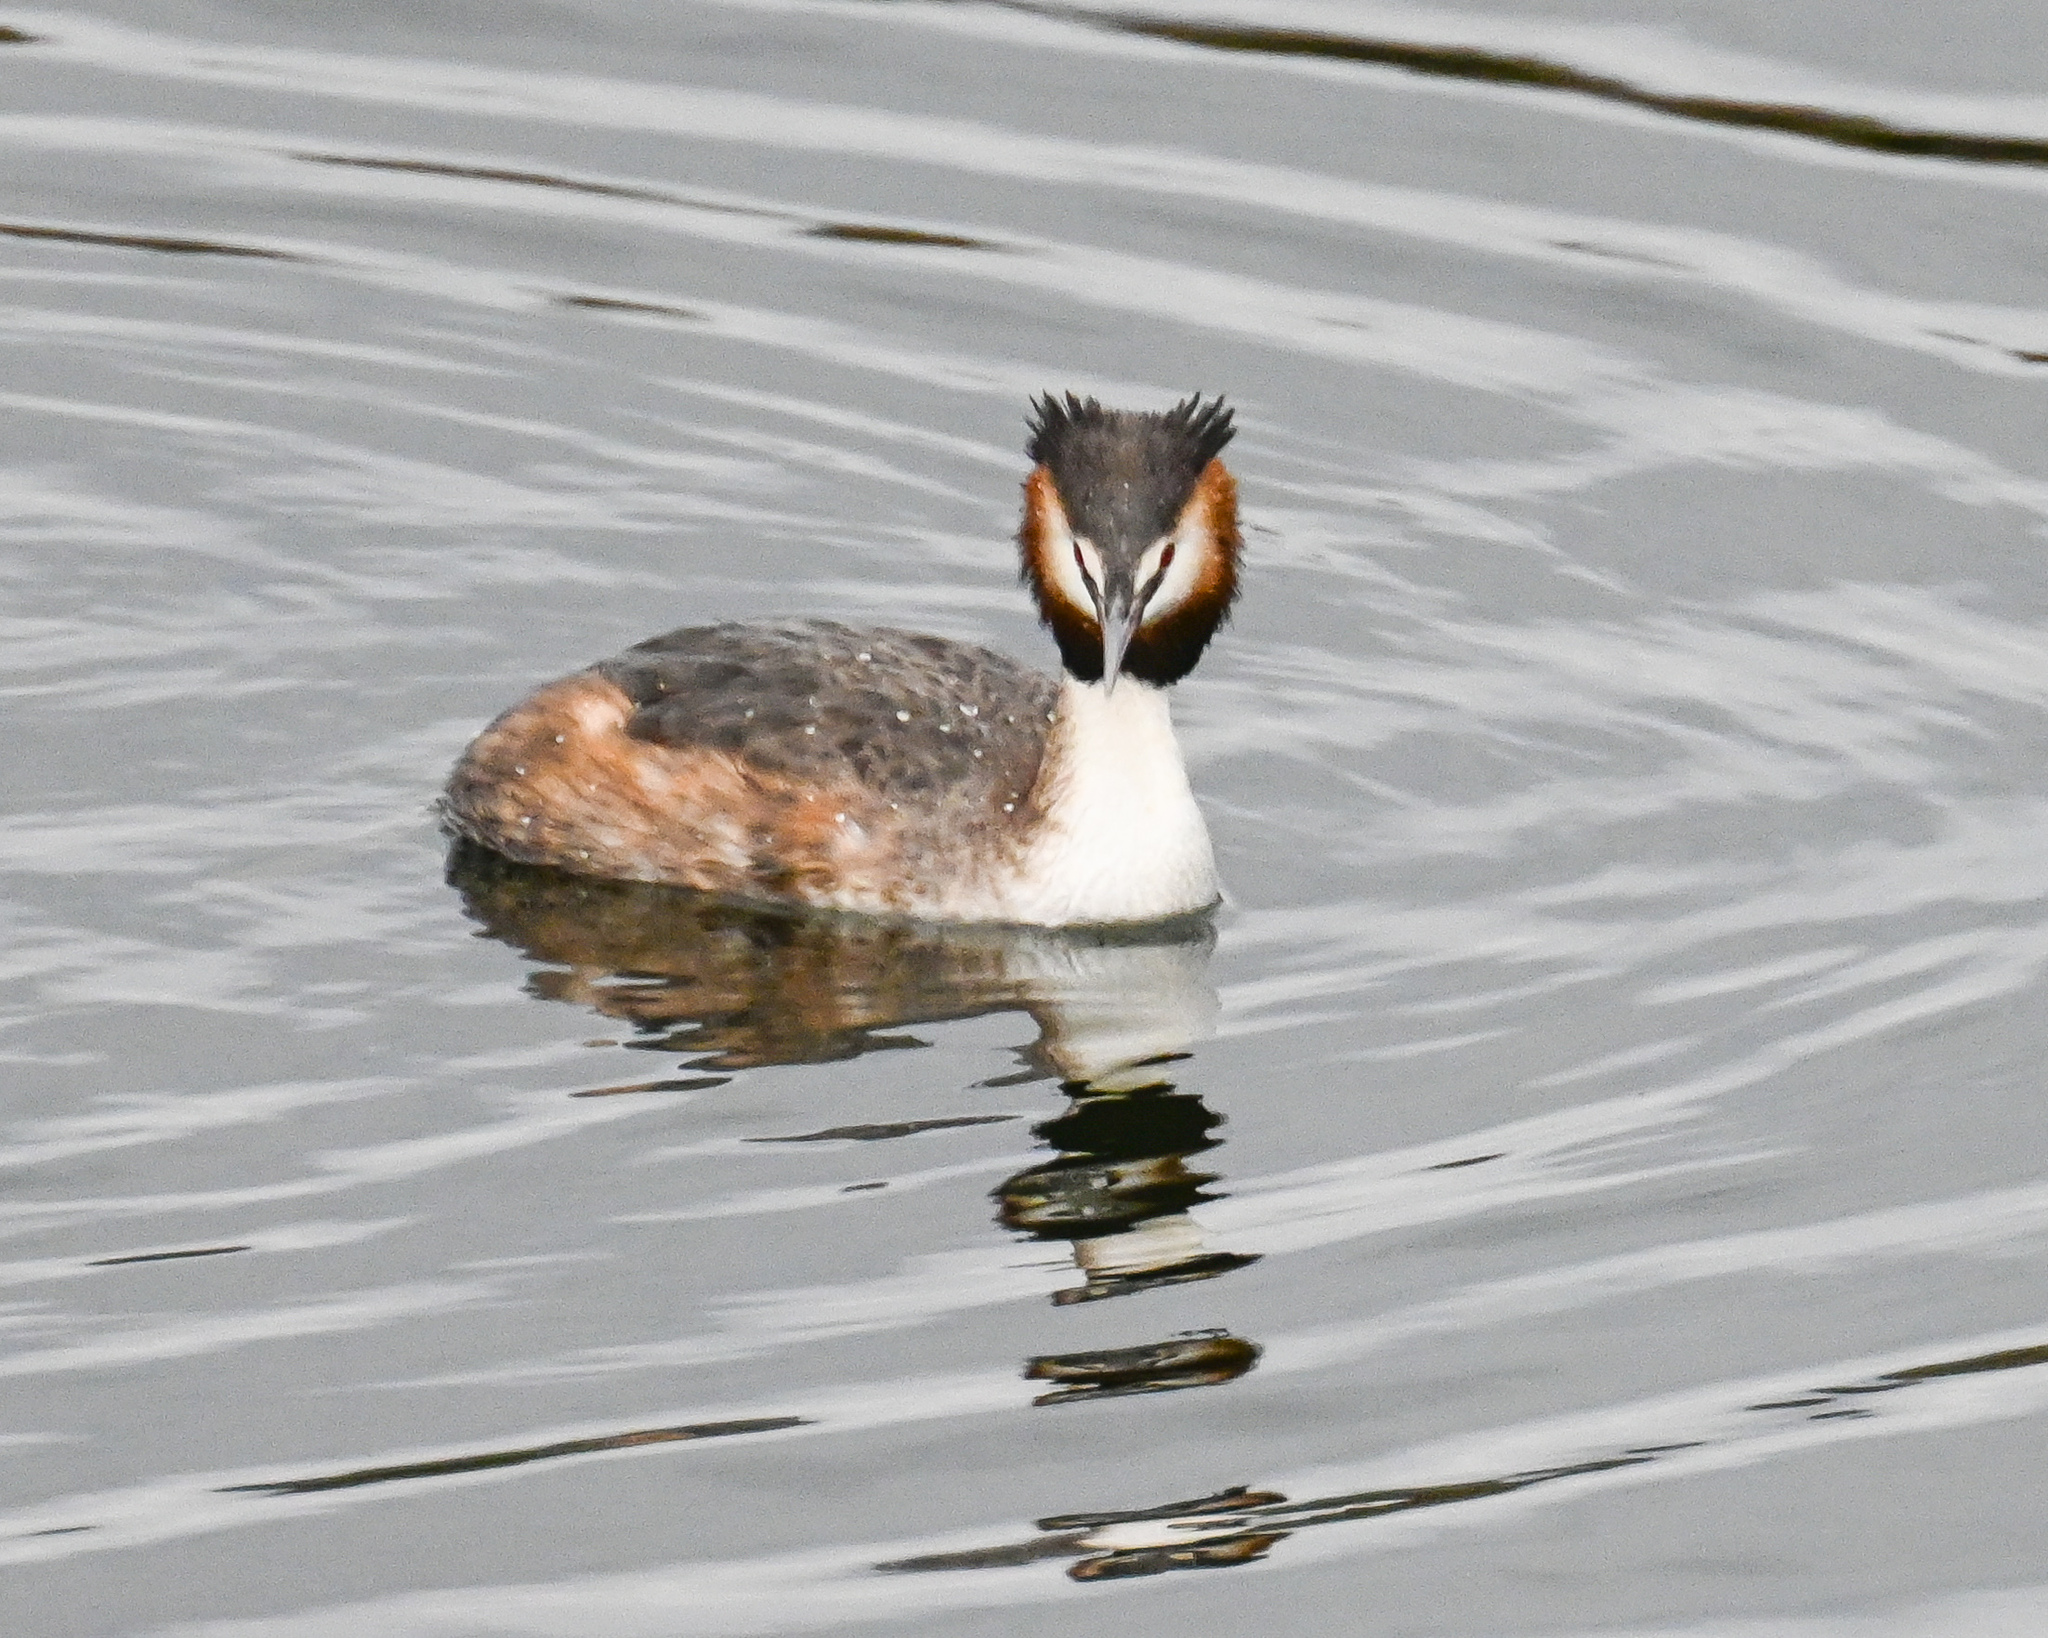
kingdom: Animalia
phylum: Chordata
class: Aves
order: Podicipediformes
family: Podicipedidae
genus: Podiceps
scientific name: Podiceps cristatus
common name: Great crested grebe
